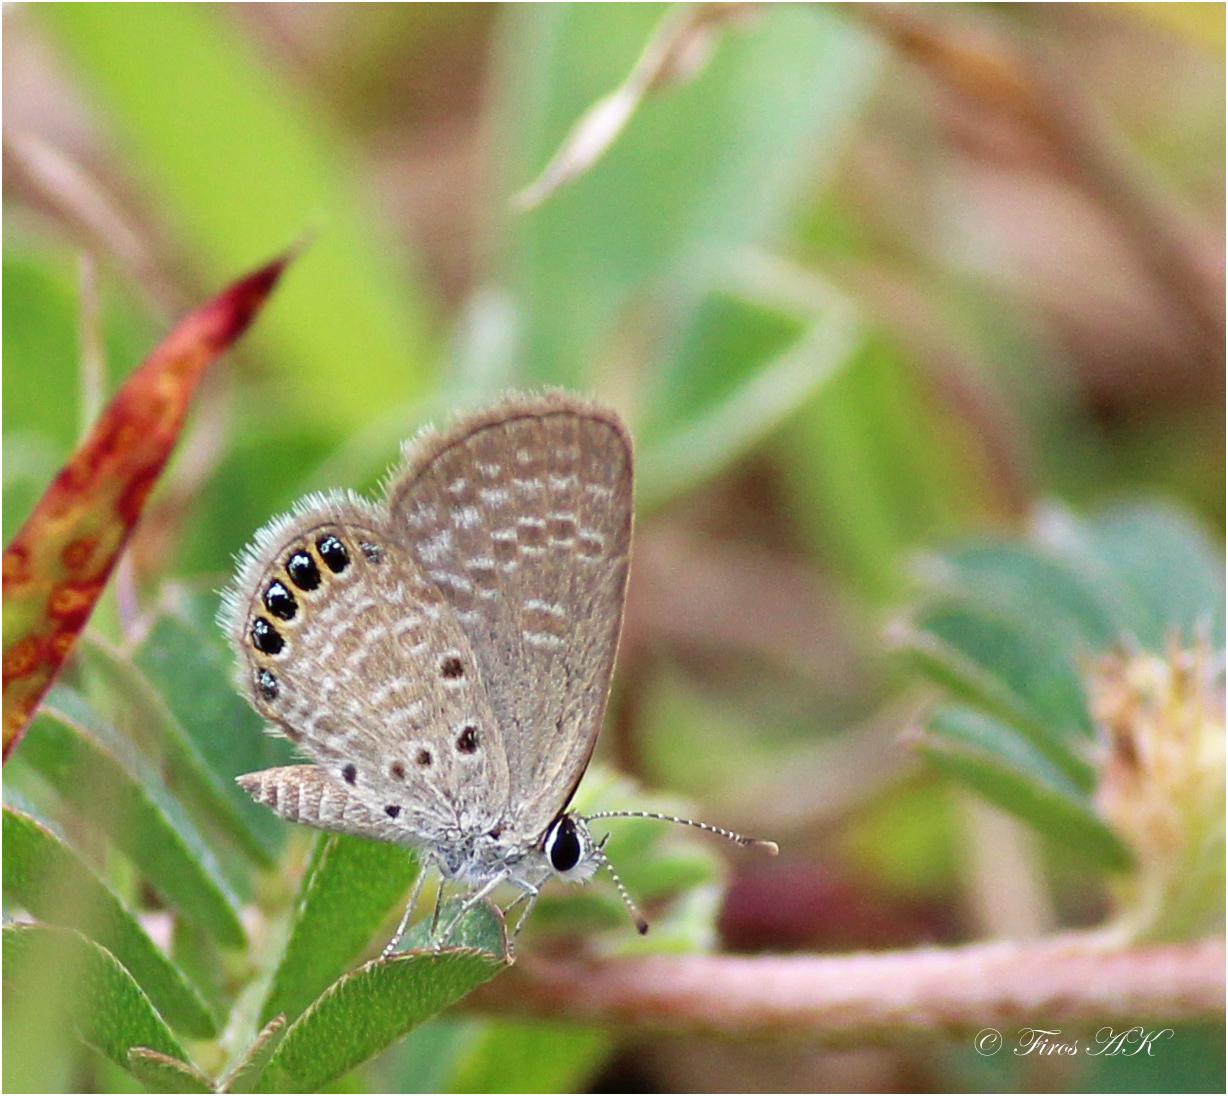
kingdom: Animalia
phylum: Arthropoda
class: Insecta
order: Lepidoptera
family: Lycaenidae
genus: Freyeria
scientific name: Freyeria putli
